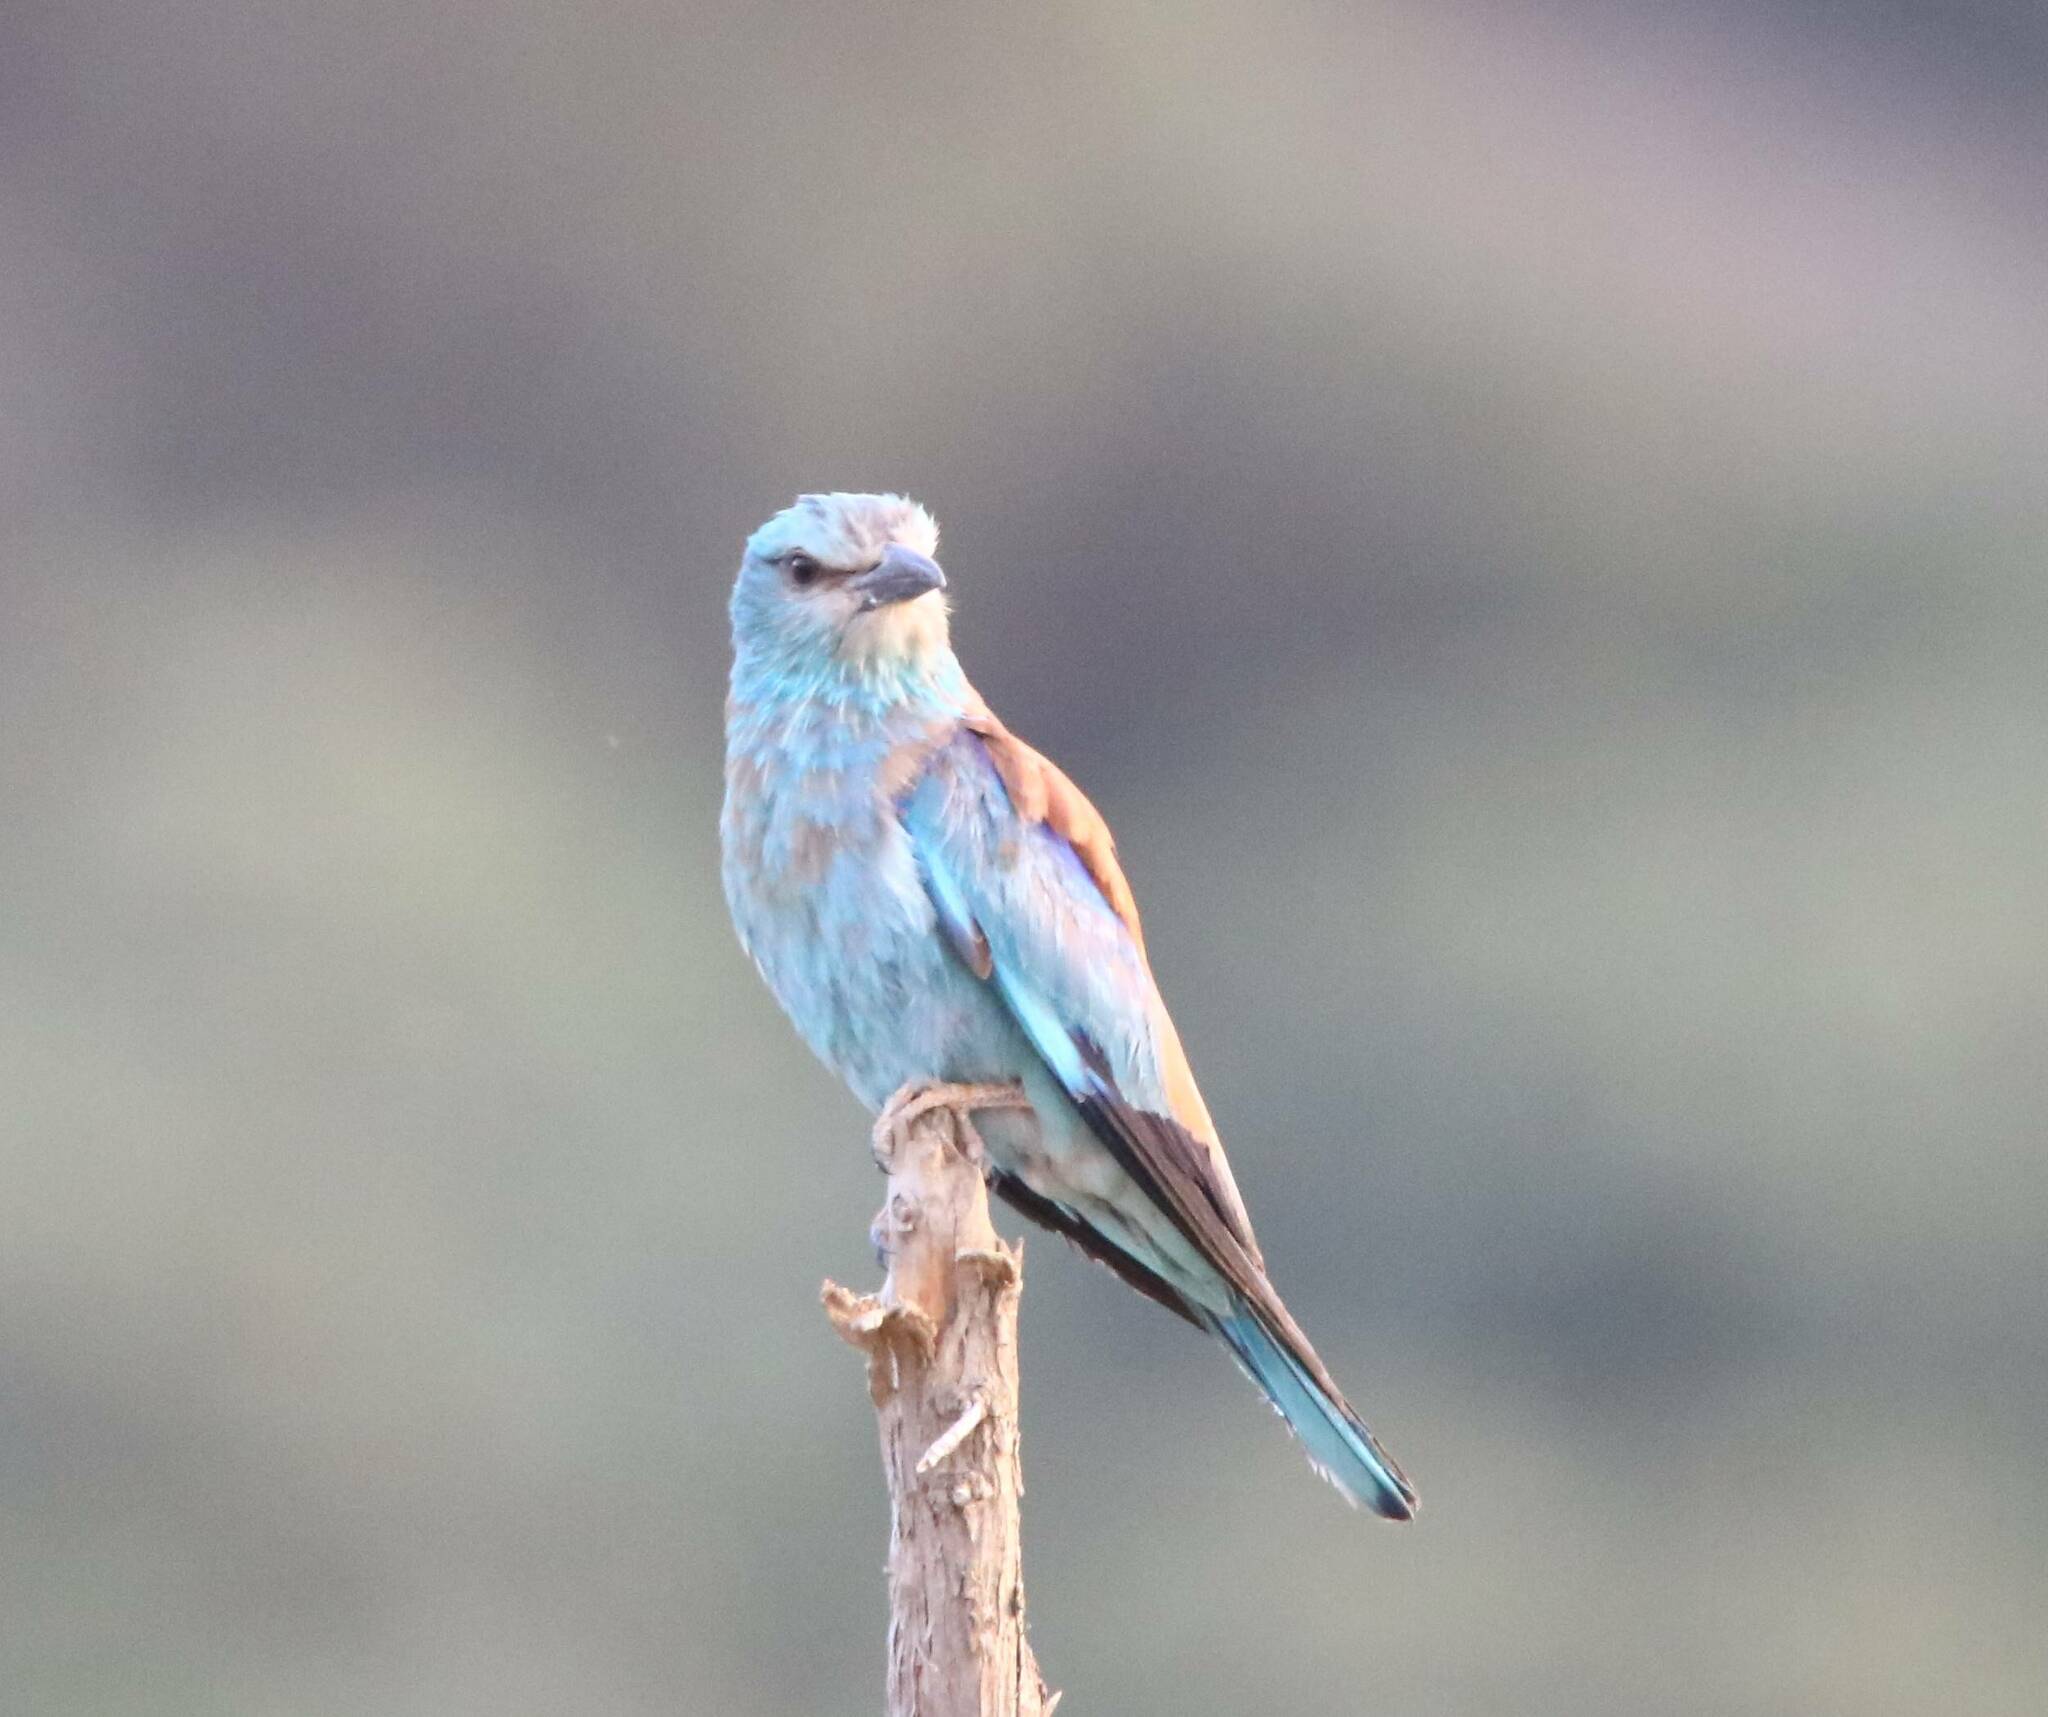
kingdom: Animalia
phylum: Chordata
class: Aves
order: Coraciiformes
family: Coraciidae
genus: Coracias
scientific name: Coracias garrulus
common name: European roller
